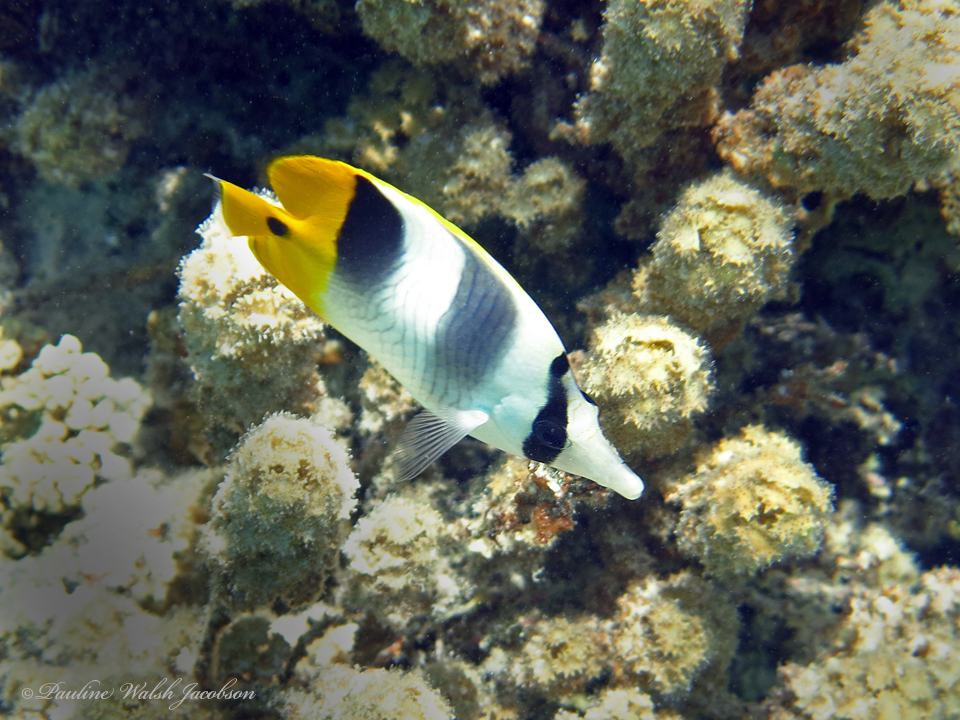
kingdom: Animalia
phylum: Chordata
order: Perciformes
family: Chaetodontidae
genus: Chaetodon
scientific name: Chaetodon ulietensis
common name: Pacific double-saddle butterflyfish
